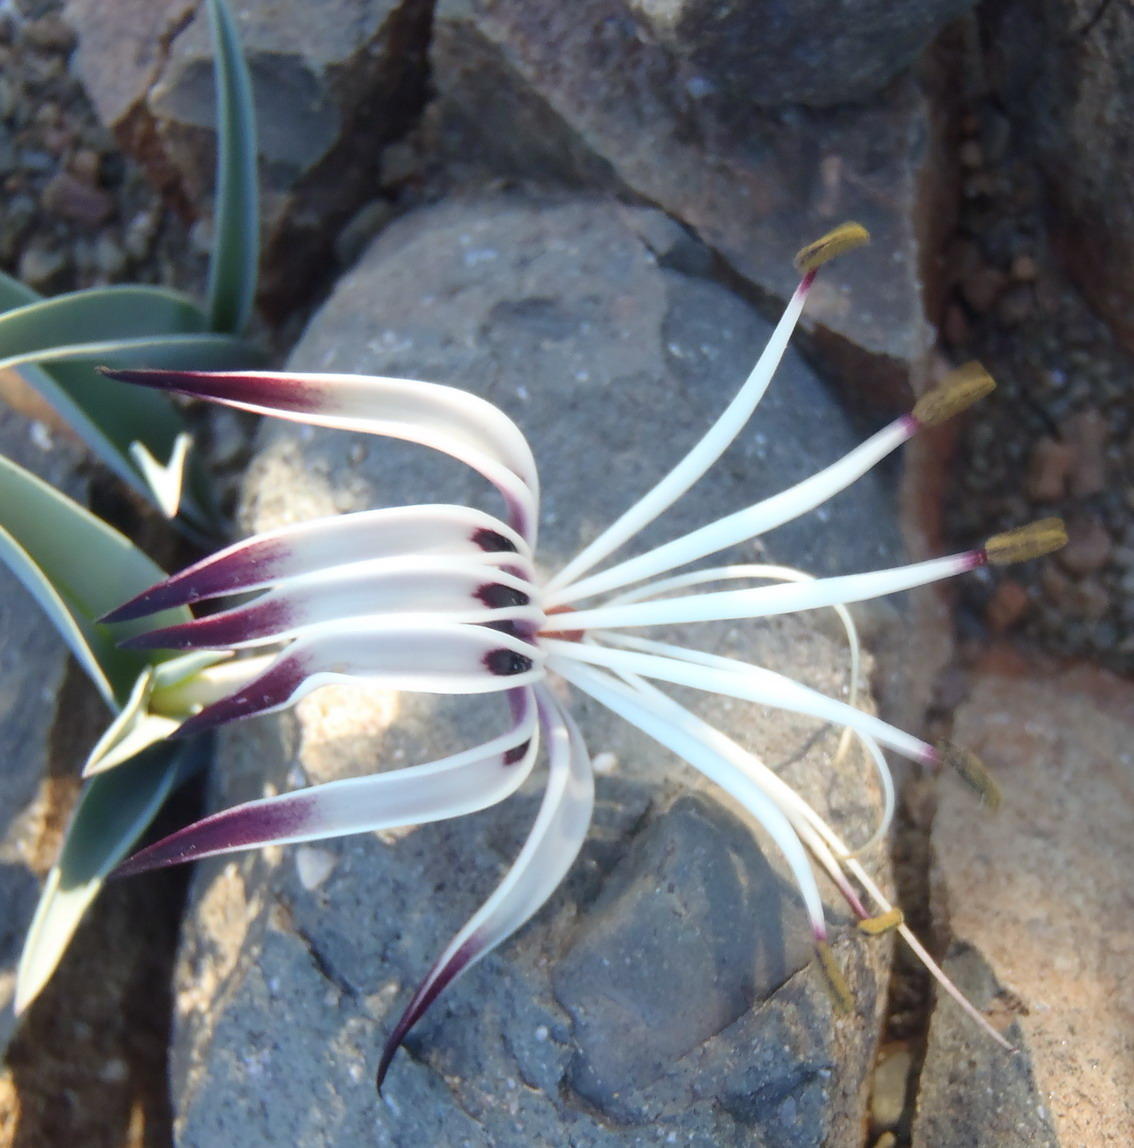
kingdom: Plantae
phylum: Tracheophyta
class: Liliopsida
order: Liliales
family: Colchicaceae
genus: Ornithoglossum
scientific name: Ornithoglossum undulatum
